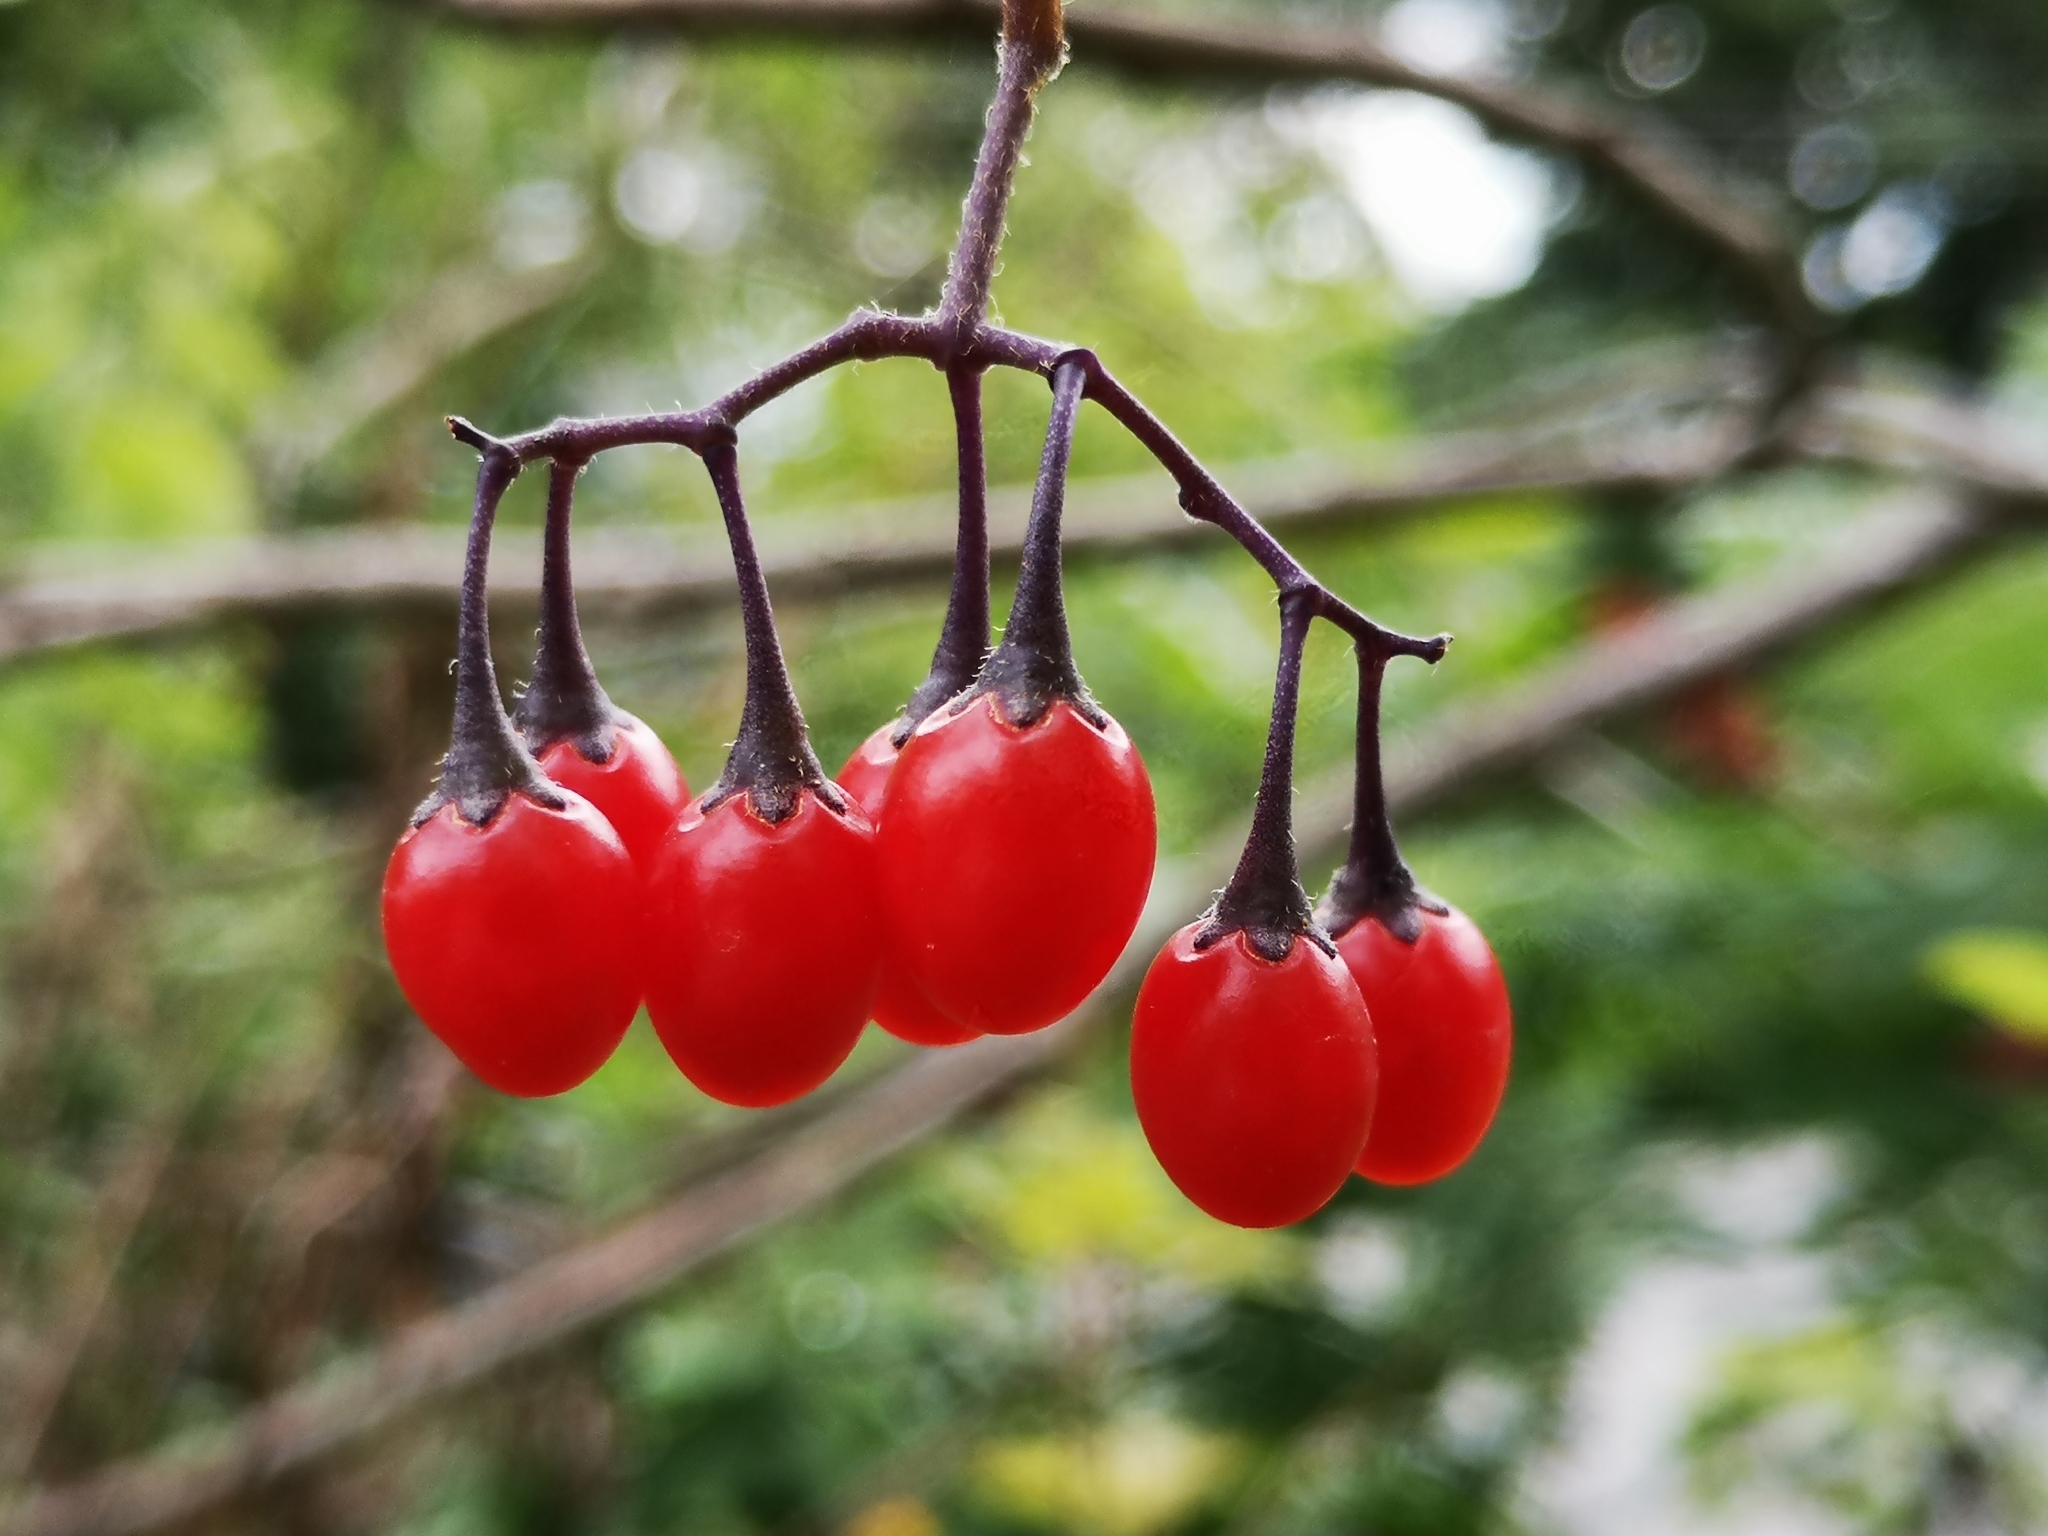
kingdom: Plantae
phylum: Tracheophyta
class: Magnoliopsida
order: Solanales
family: Solanaceae
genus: Solanum
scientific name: Solanum dulcamara
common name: Climbing nightshade
